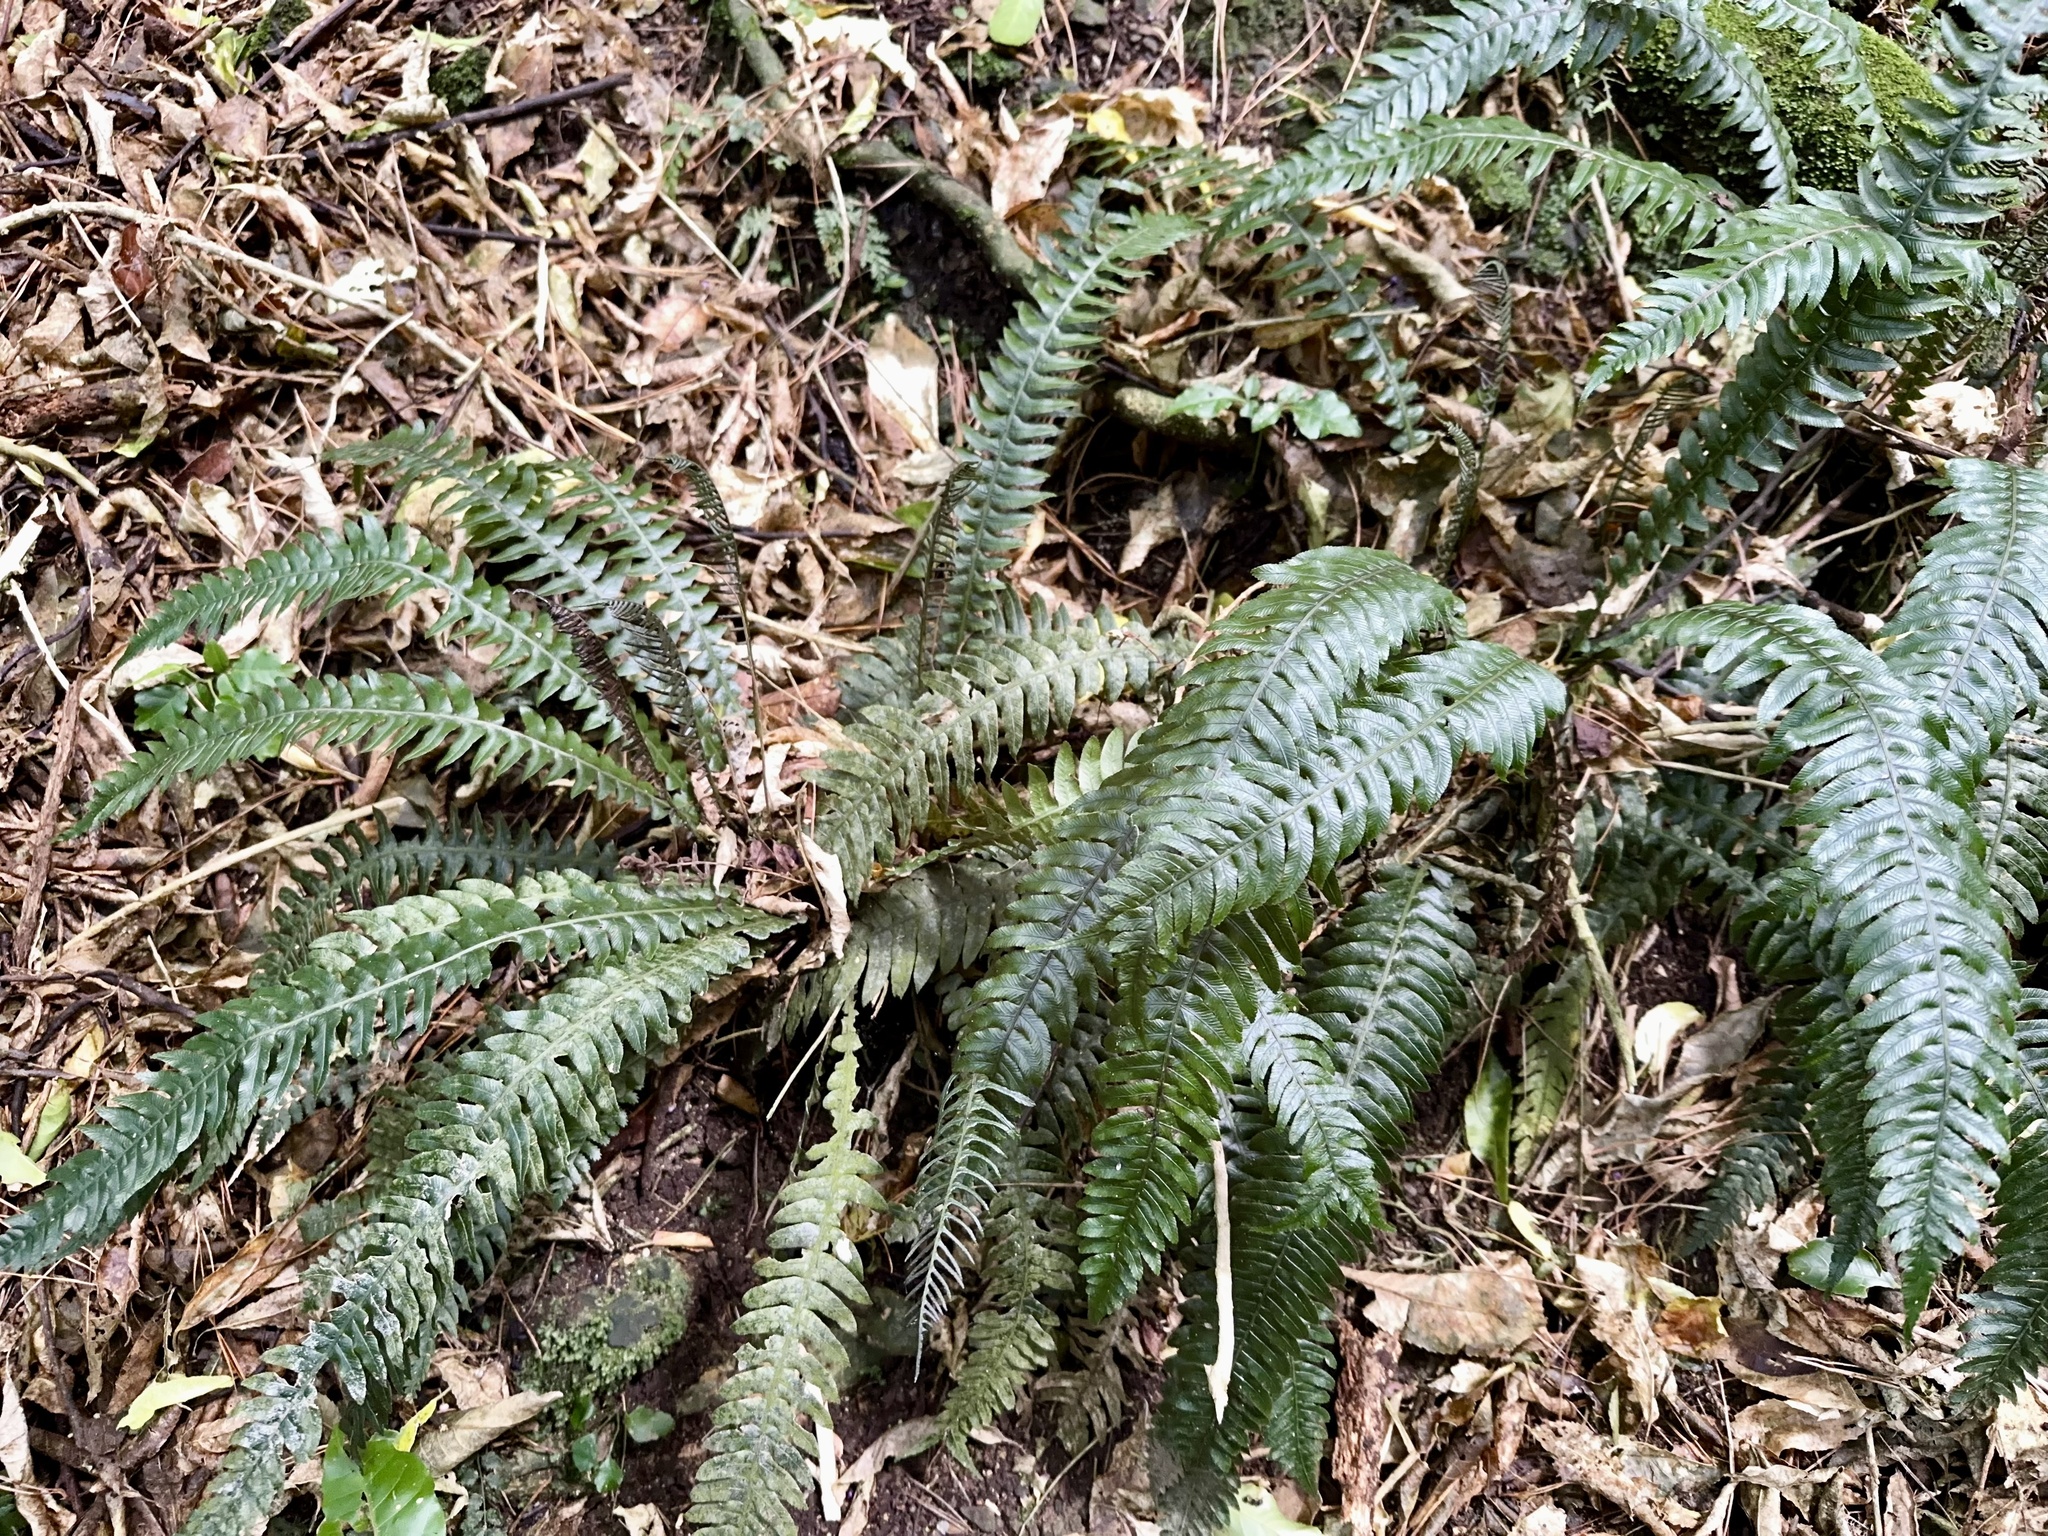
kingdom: Plantae
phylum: Tracheophyta
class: Polypodiopsida
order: Polypodiales
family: Blechnaceae
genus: Austroblechnum
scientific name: Austroblechnum lanceolatum
